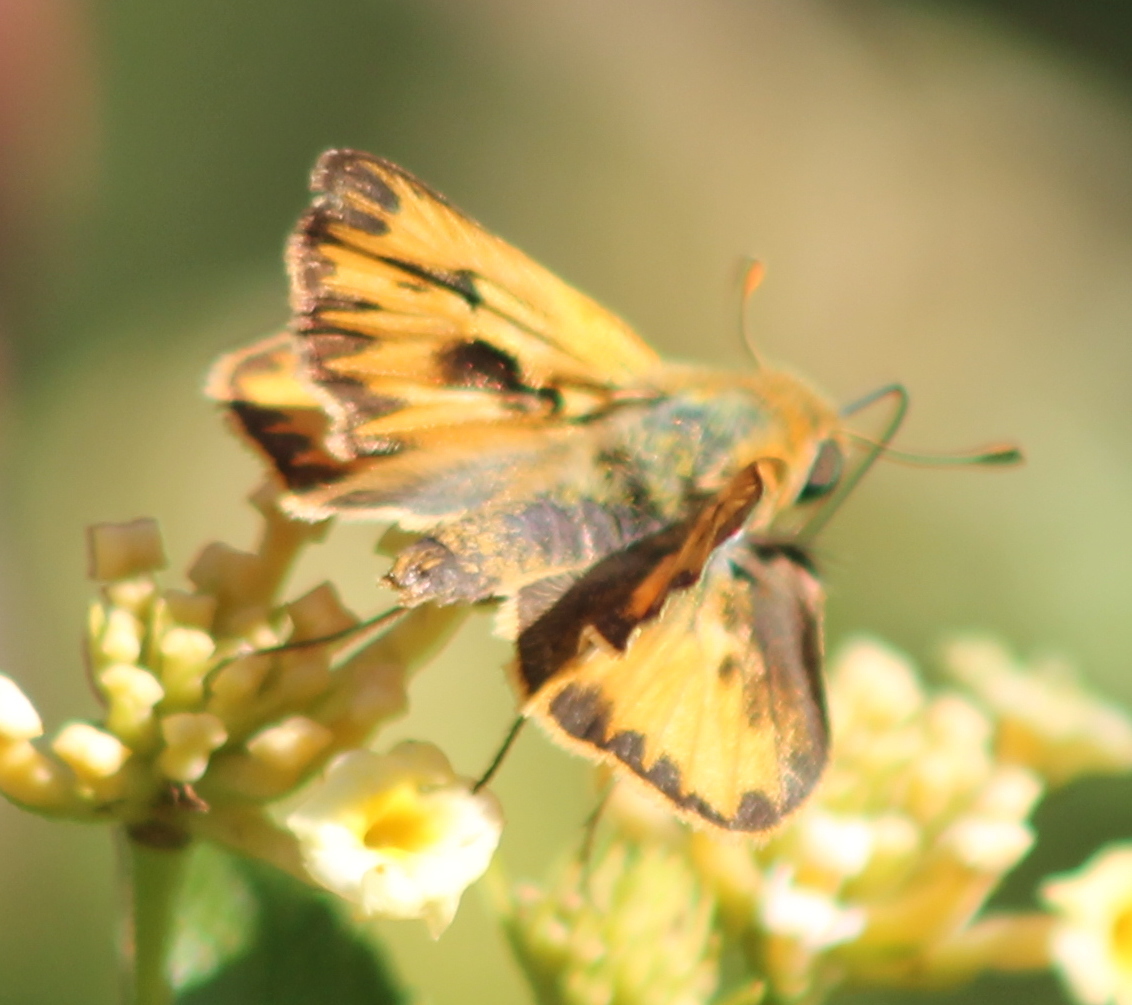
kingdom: Animalia
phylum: Arthropoda
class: Insecta
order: Lepidoptera
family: Hesperiidae
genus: Hylephila
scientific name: Hylephila phyleus
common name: Fiery skipper
